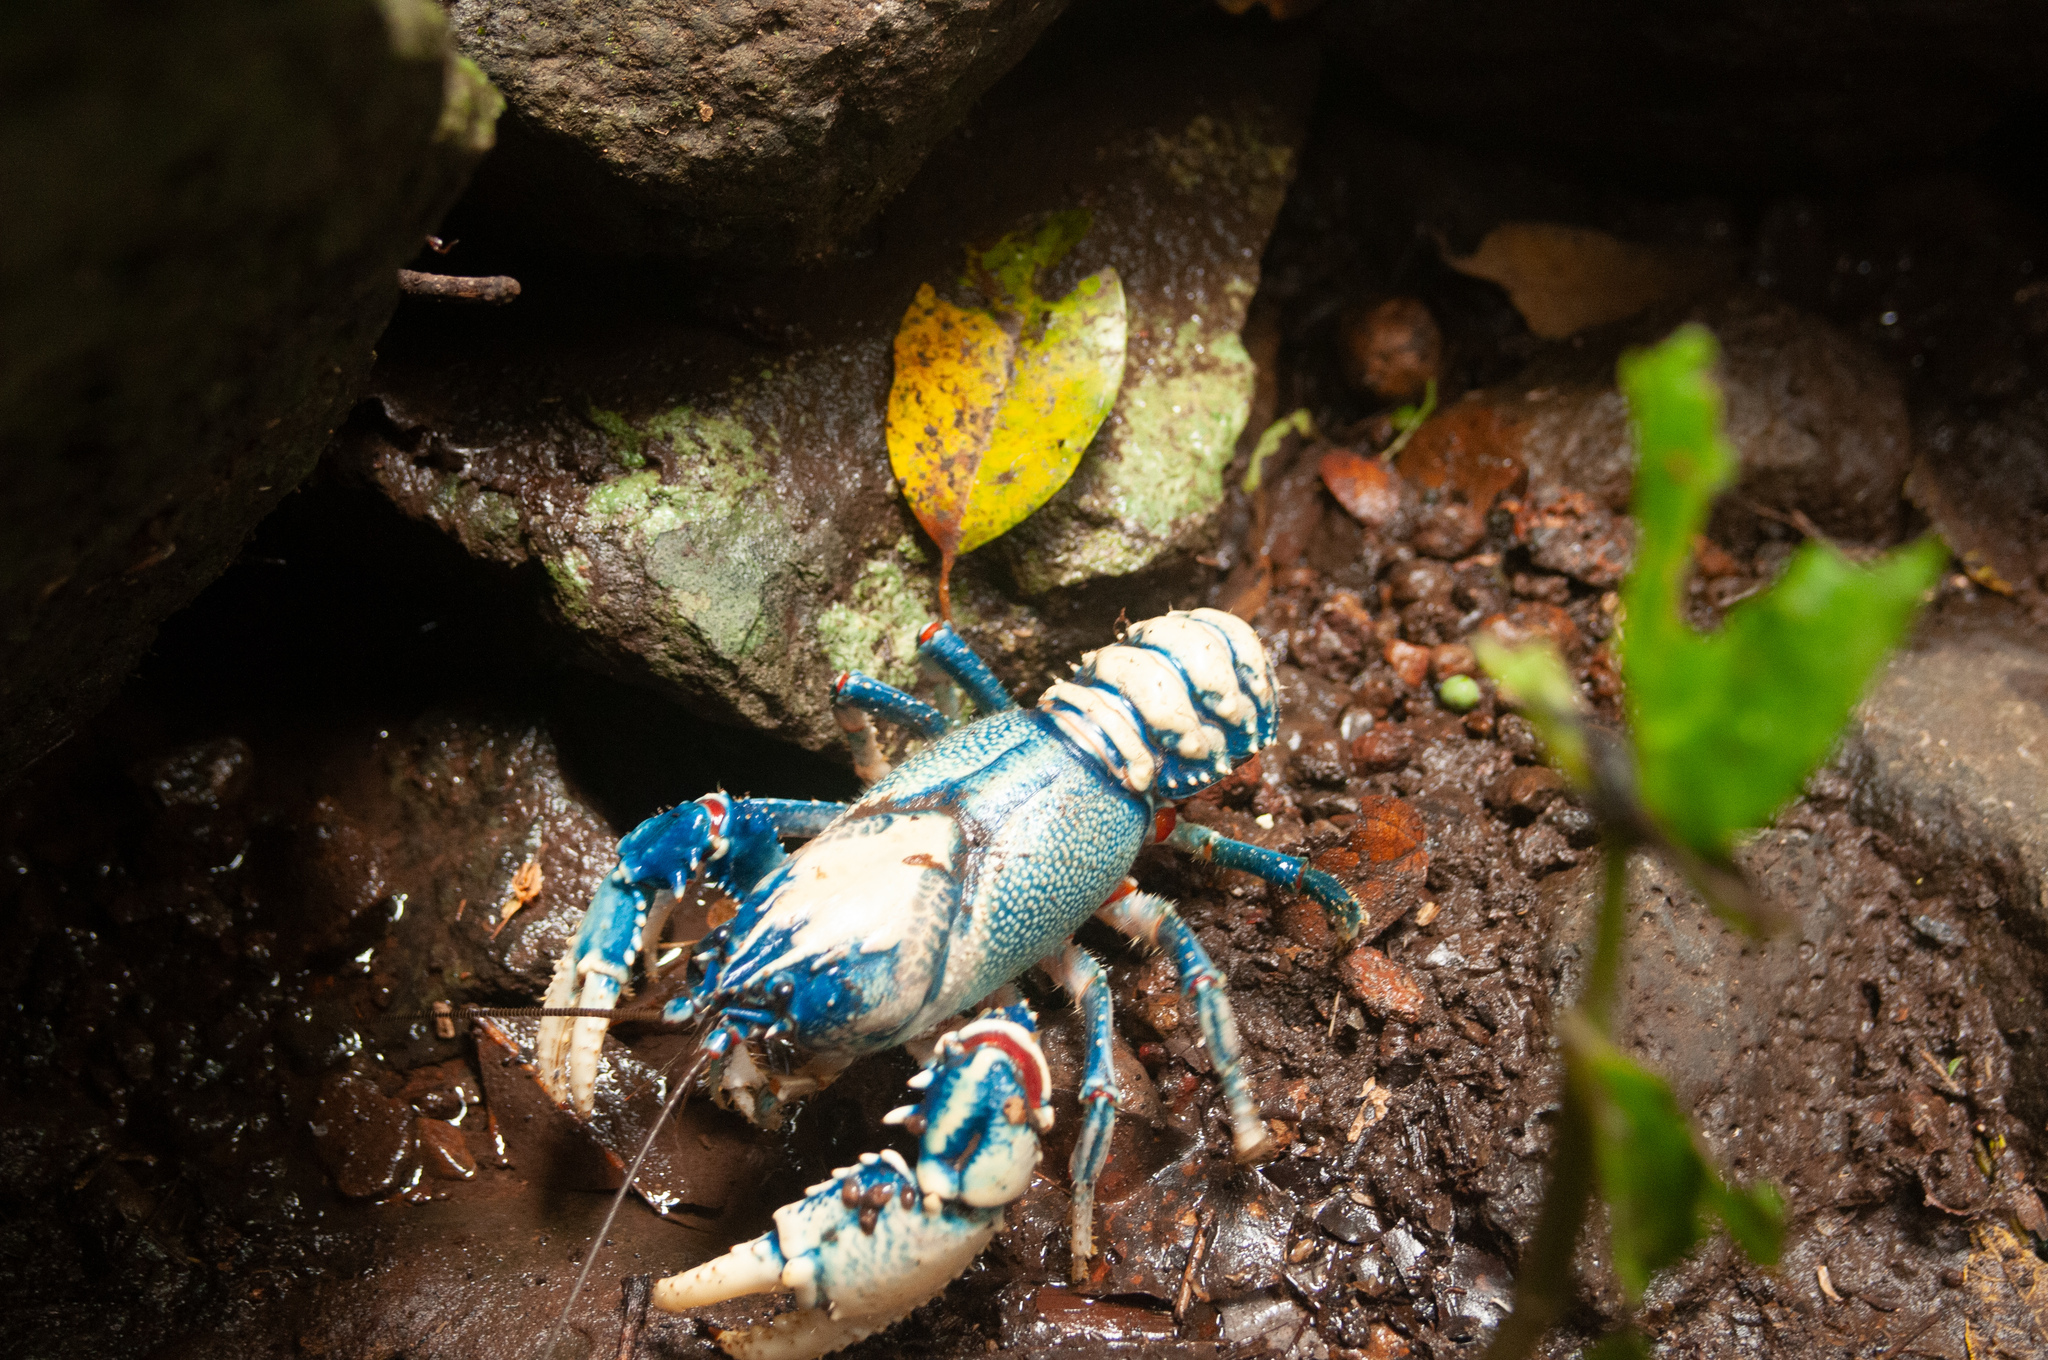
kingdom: Animalia
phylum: Arthropoda
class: Malacostraca
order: Decapoda
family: Parastacidae
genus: Euastacus
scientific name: Euastacus sulcatus
